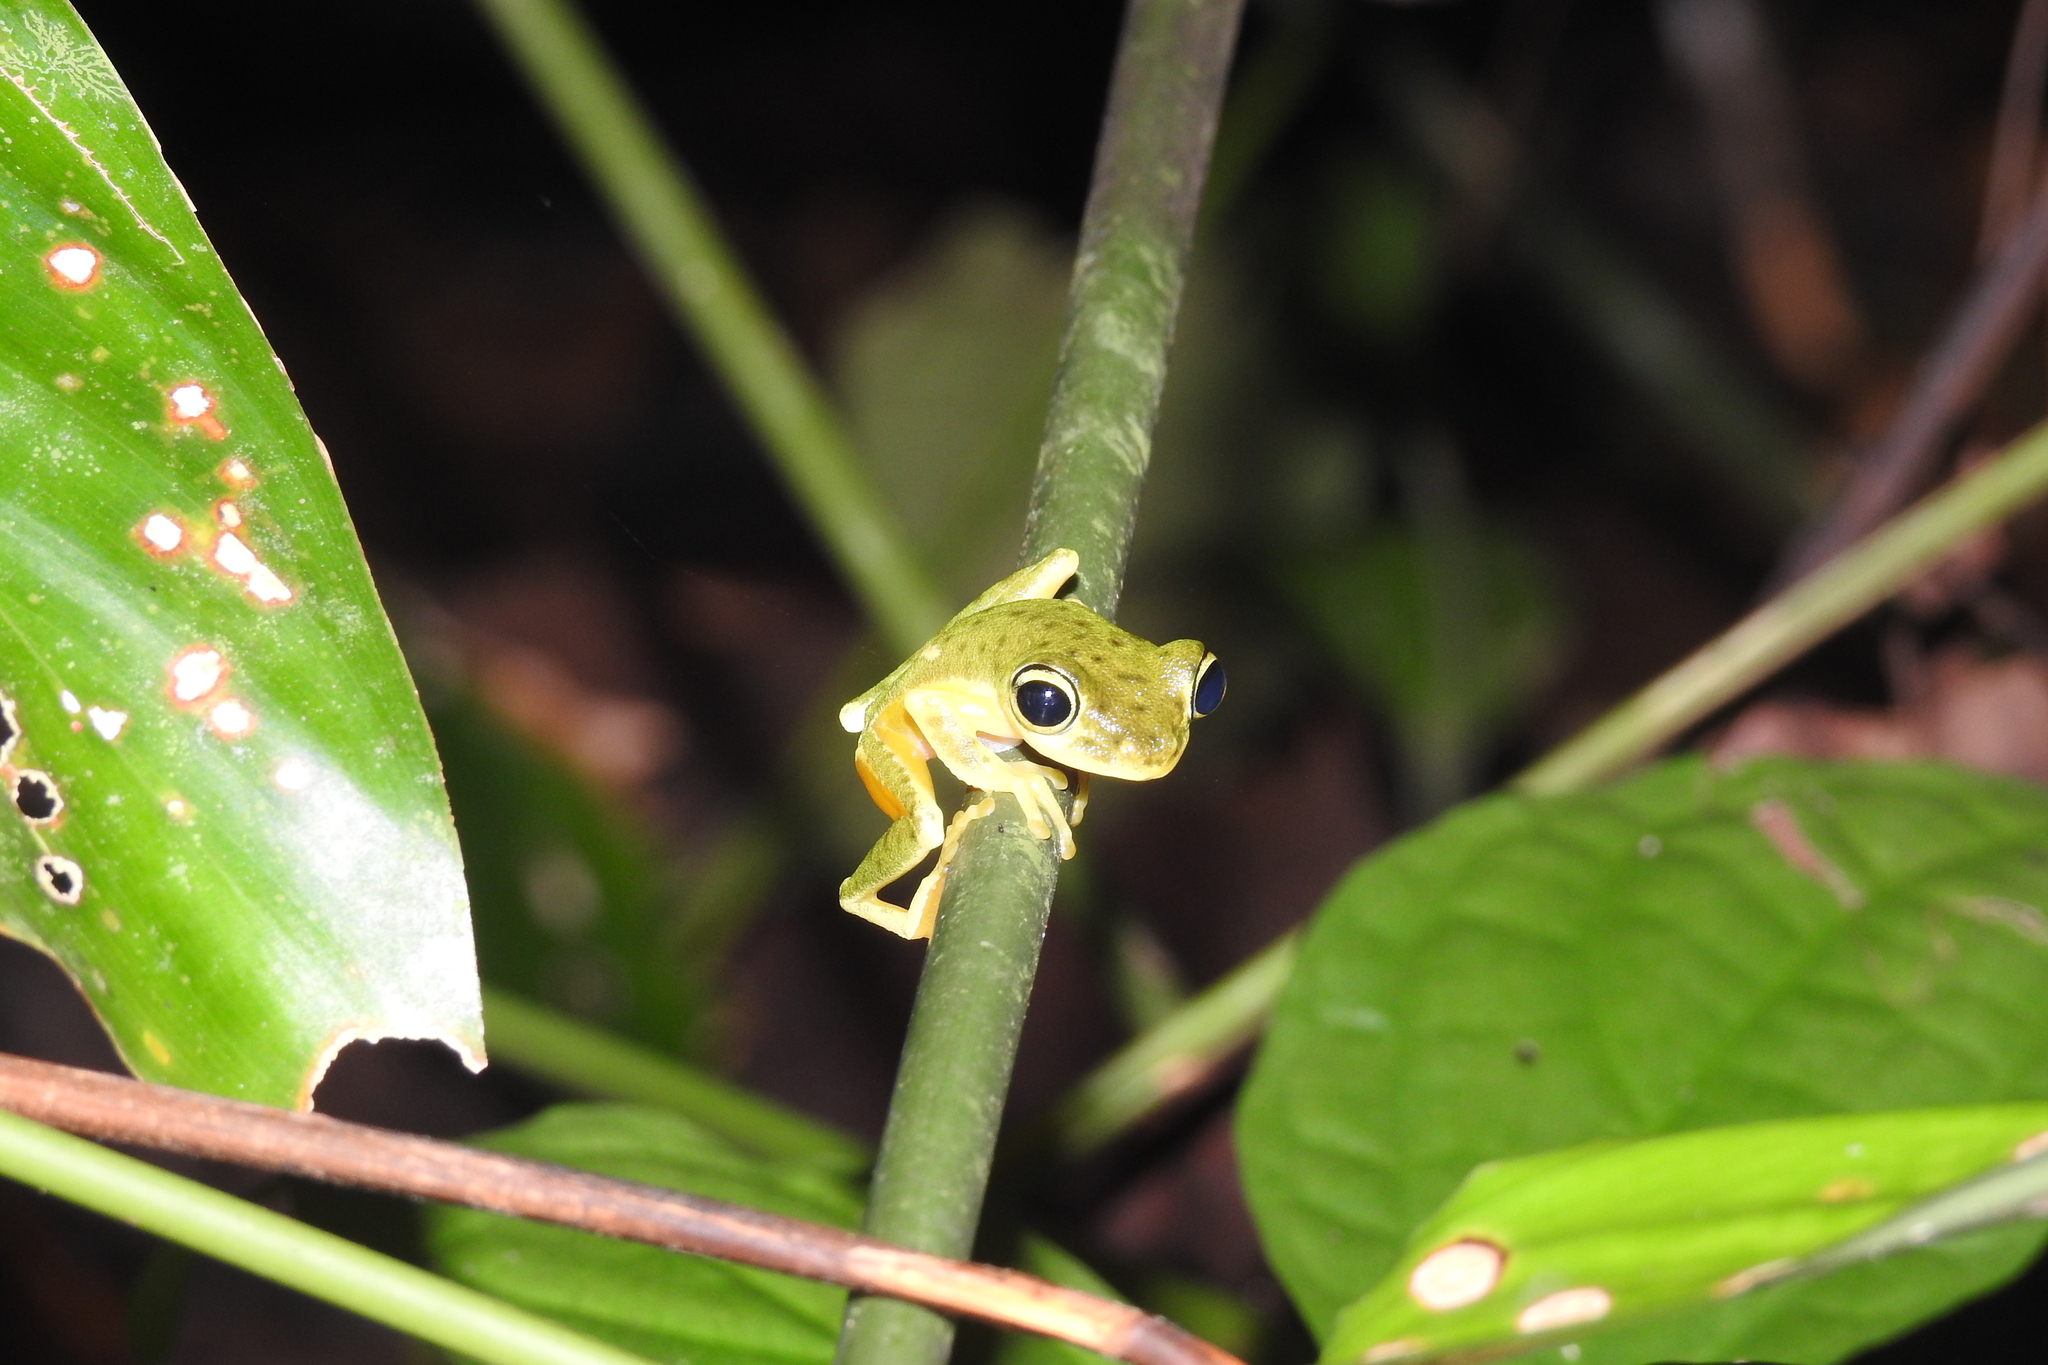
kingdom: Animalia
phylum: Chordata
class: Amphibia
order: Anura
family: Rhacophoridae
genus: Rhacophorus
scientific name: Rhacophorus edentulus
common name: Celebes flying frog
